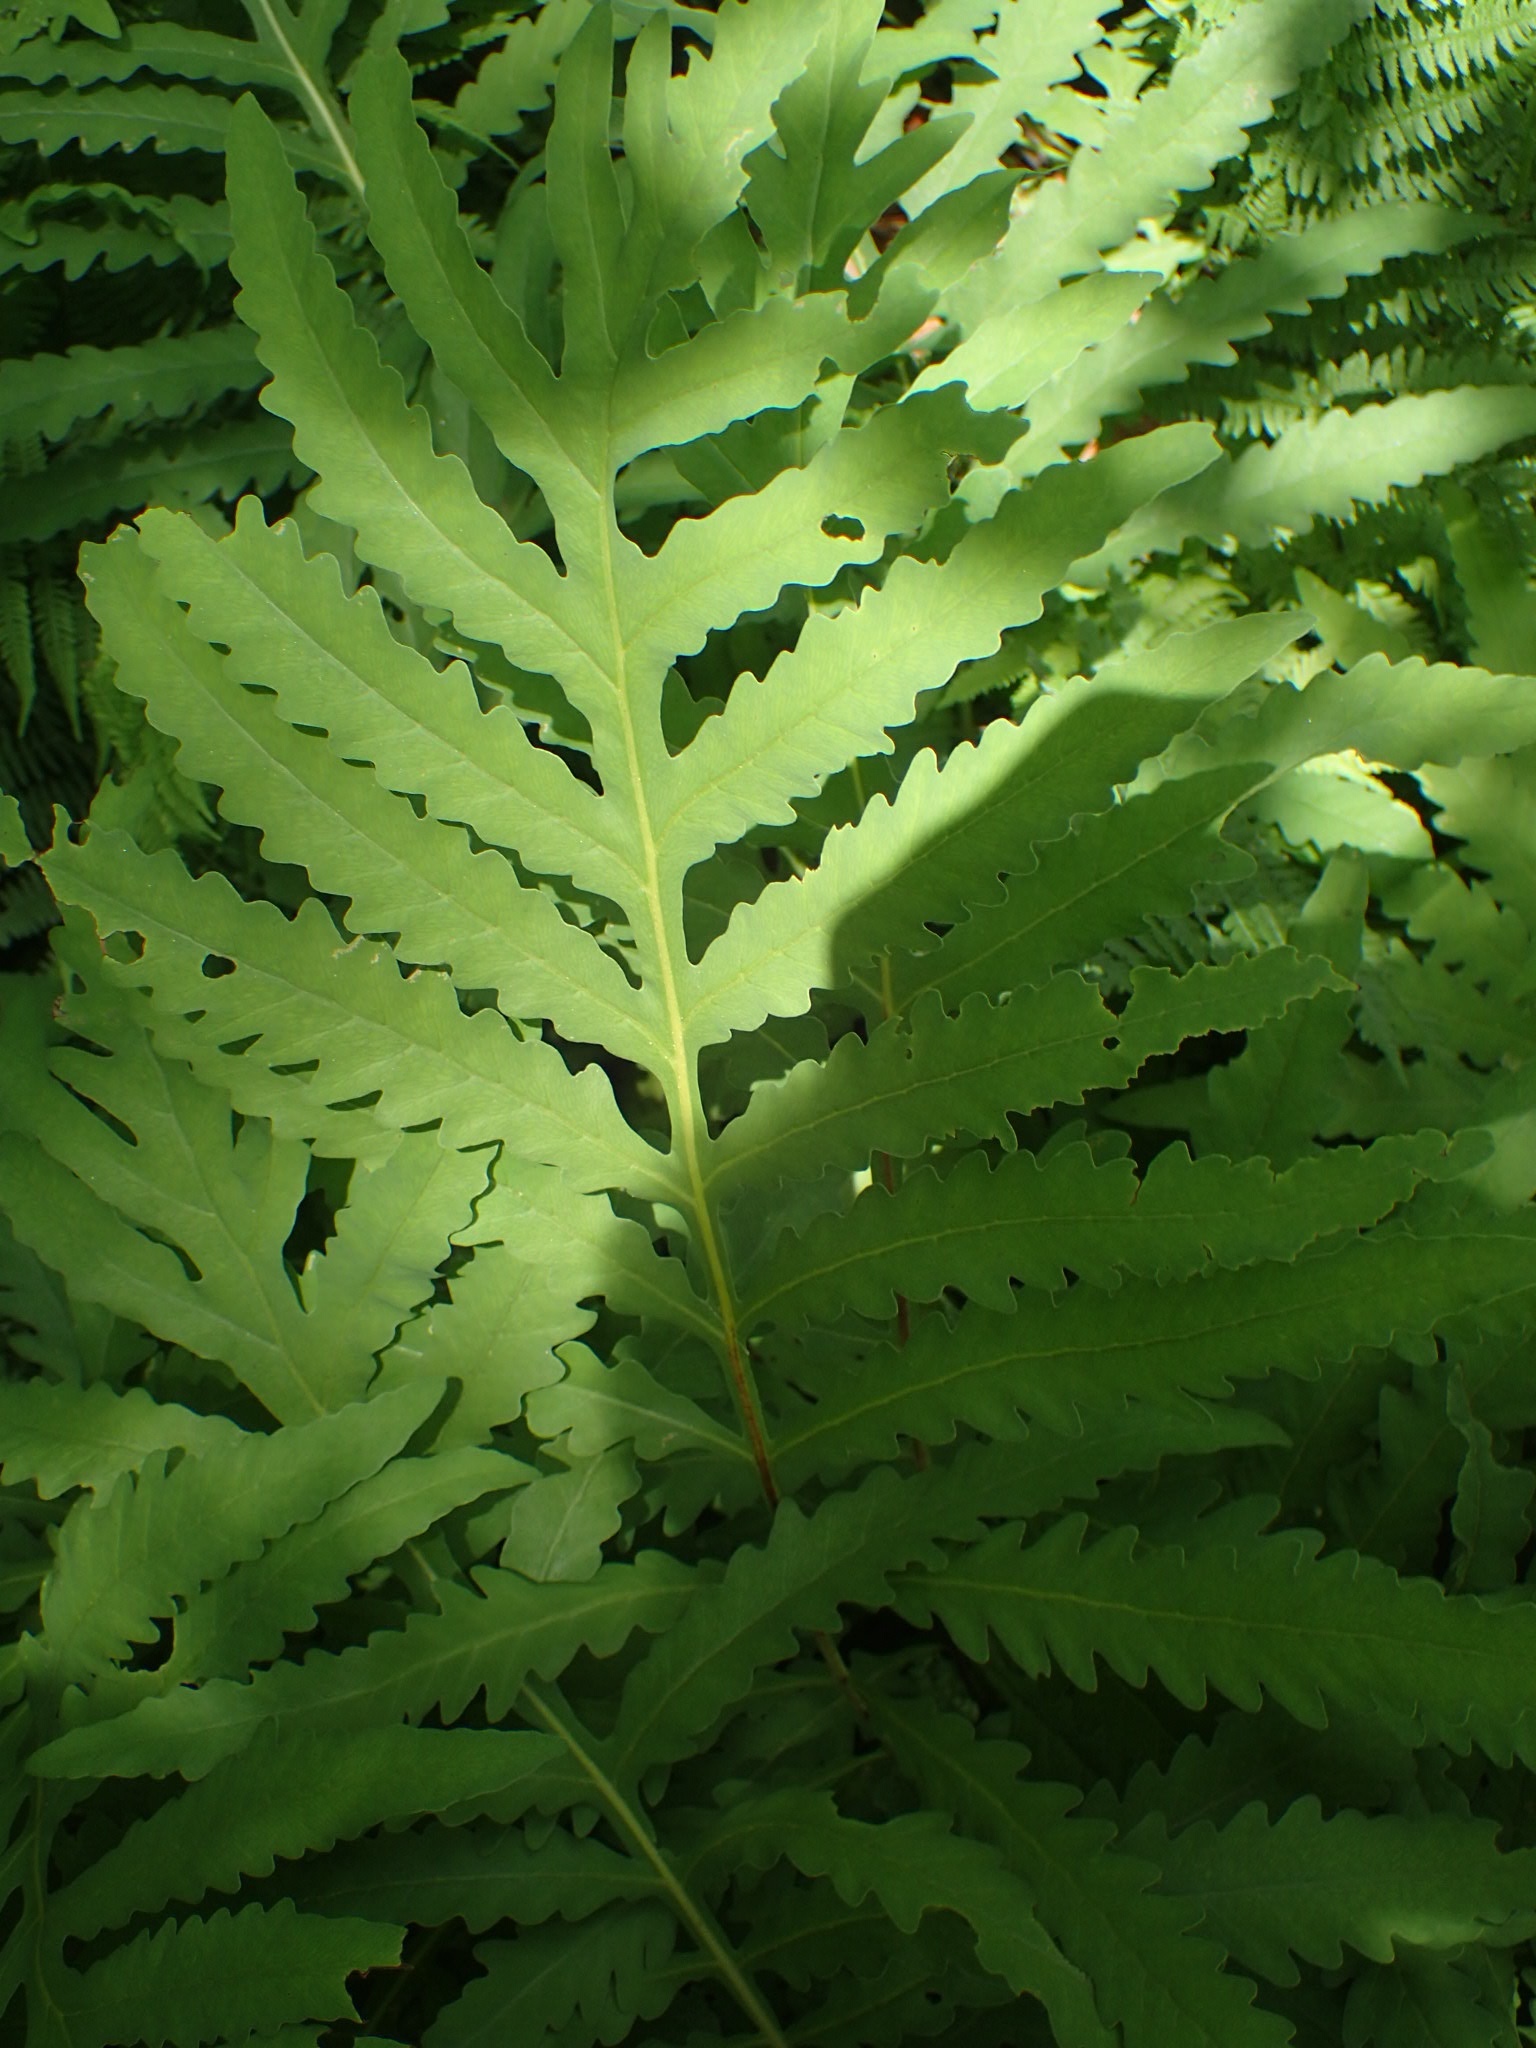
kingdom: Plantae
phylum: Tracheophyta
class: Polypodiopsida
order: Polypodiales
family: Onocleaceae
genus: Onoclea
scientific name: Onoclea sensibilis
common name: Sensitive fern
